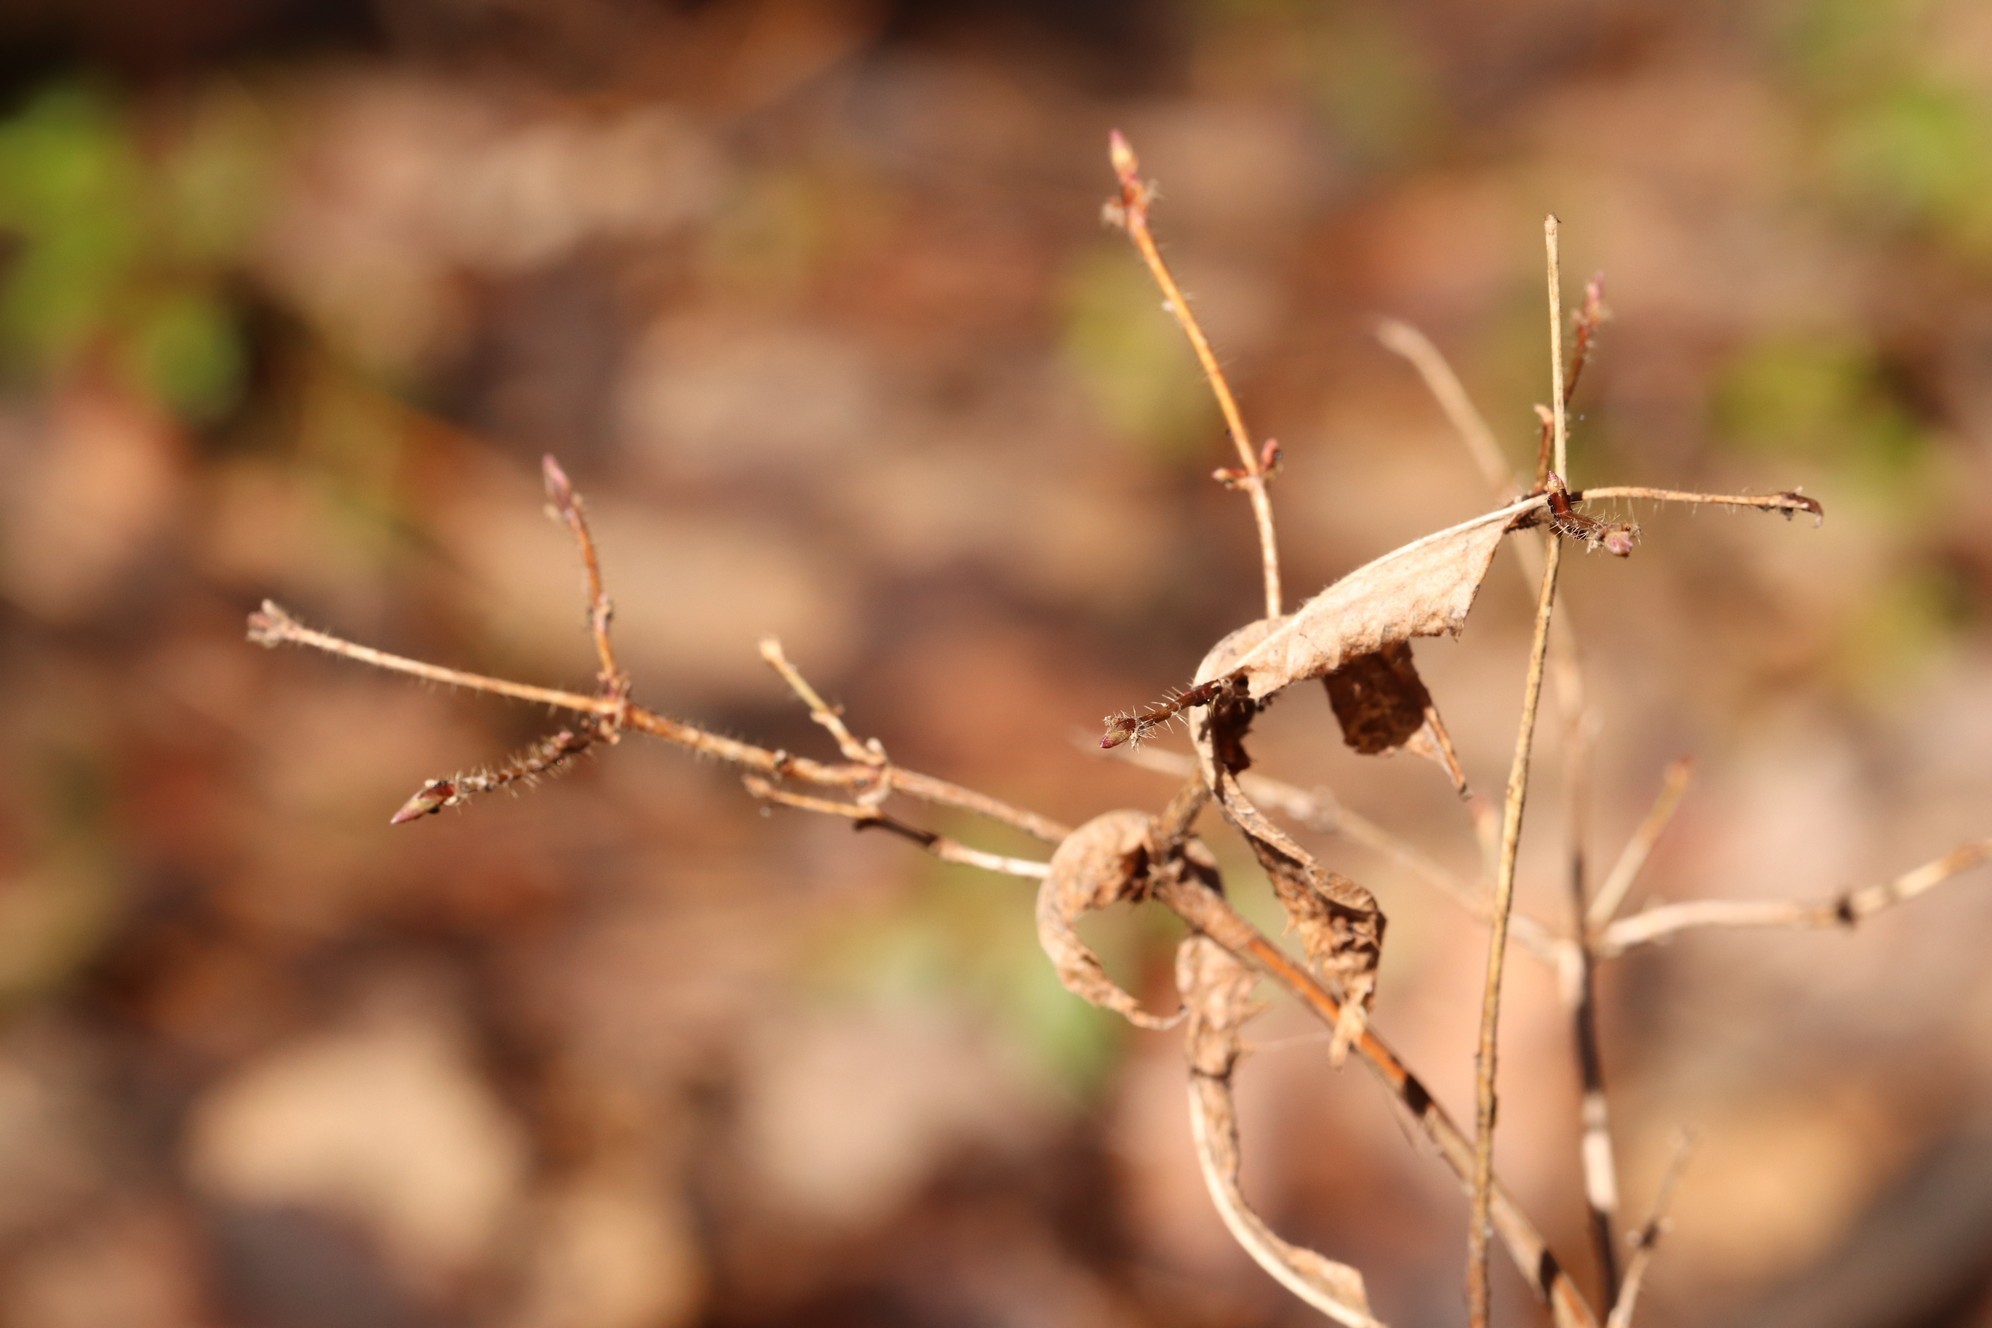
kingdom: Plantae
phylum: Tracheophyta
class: Magnoliopsida
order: Dipsacales
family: Caprifoliaceae
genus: Lonicera
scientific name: Lonicera caerulea
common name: Blue honeysuckle
